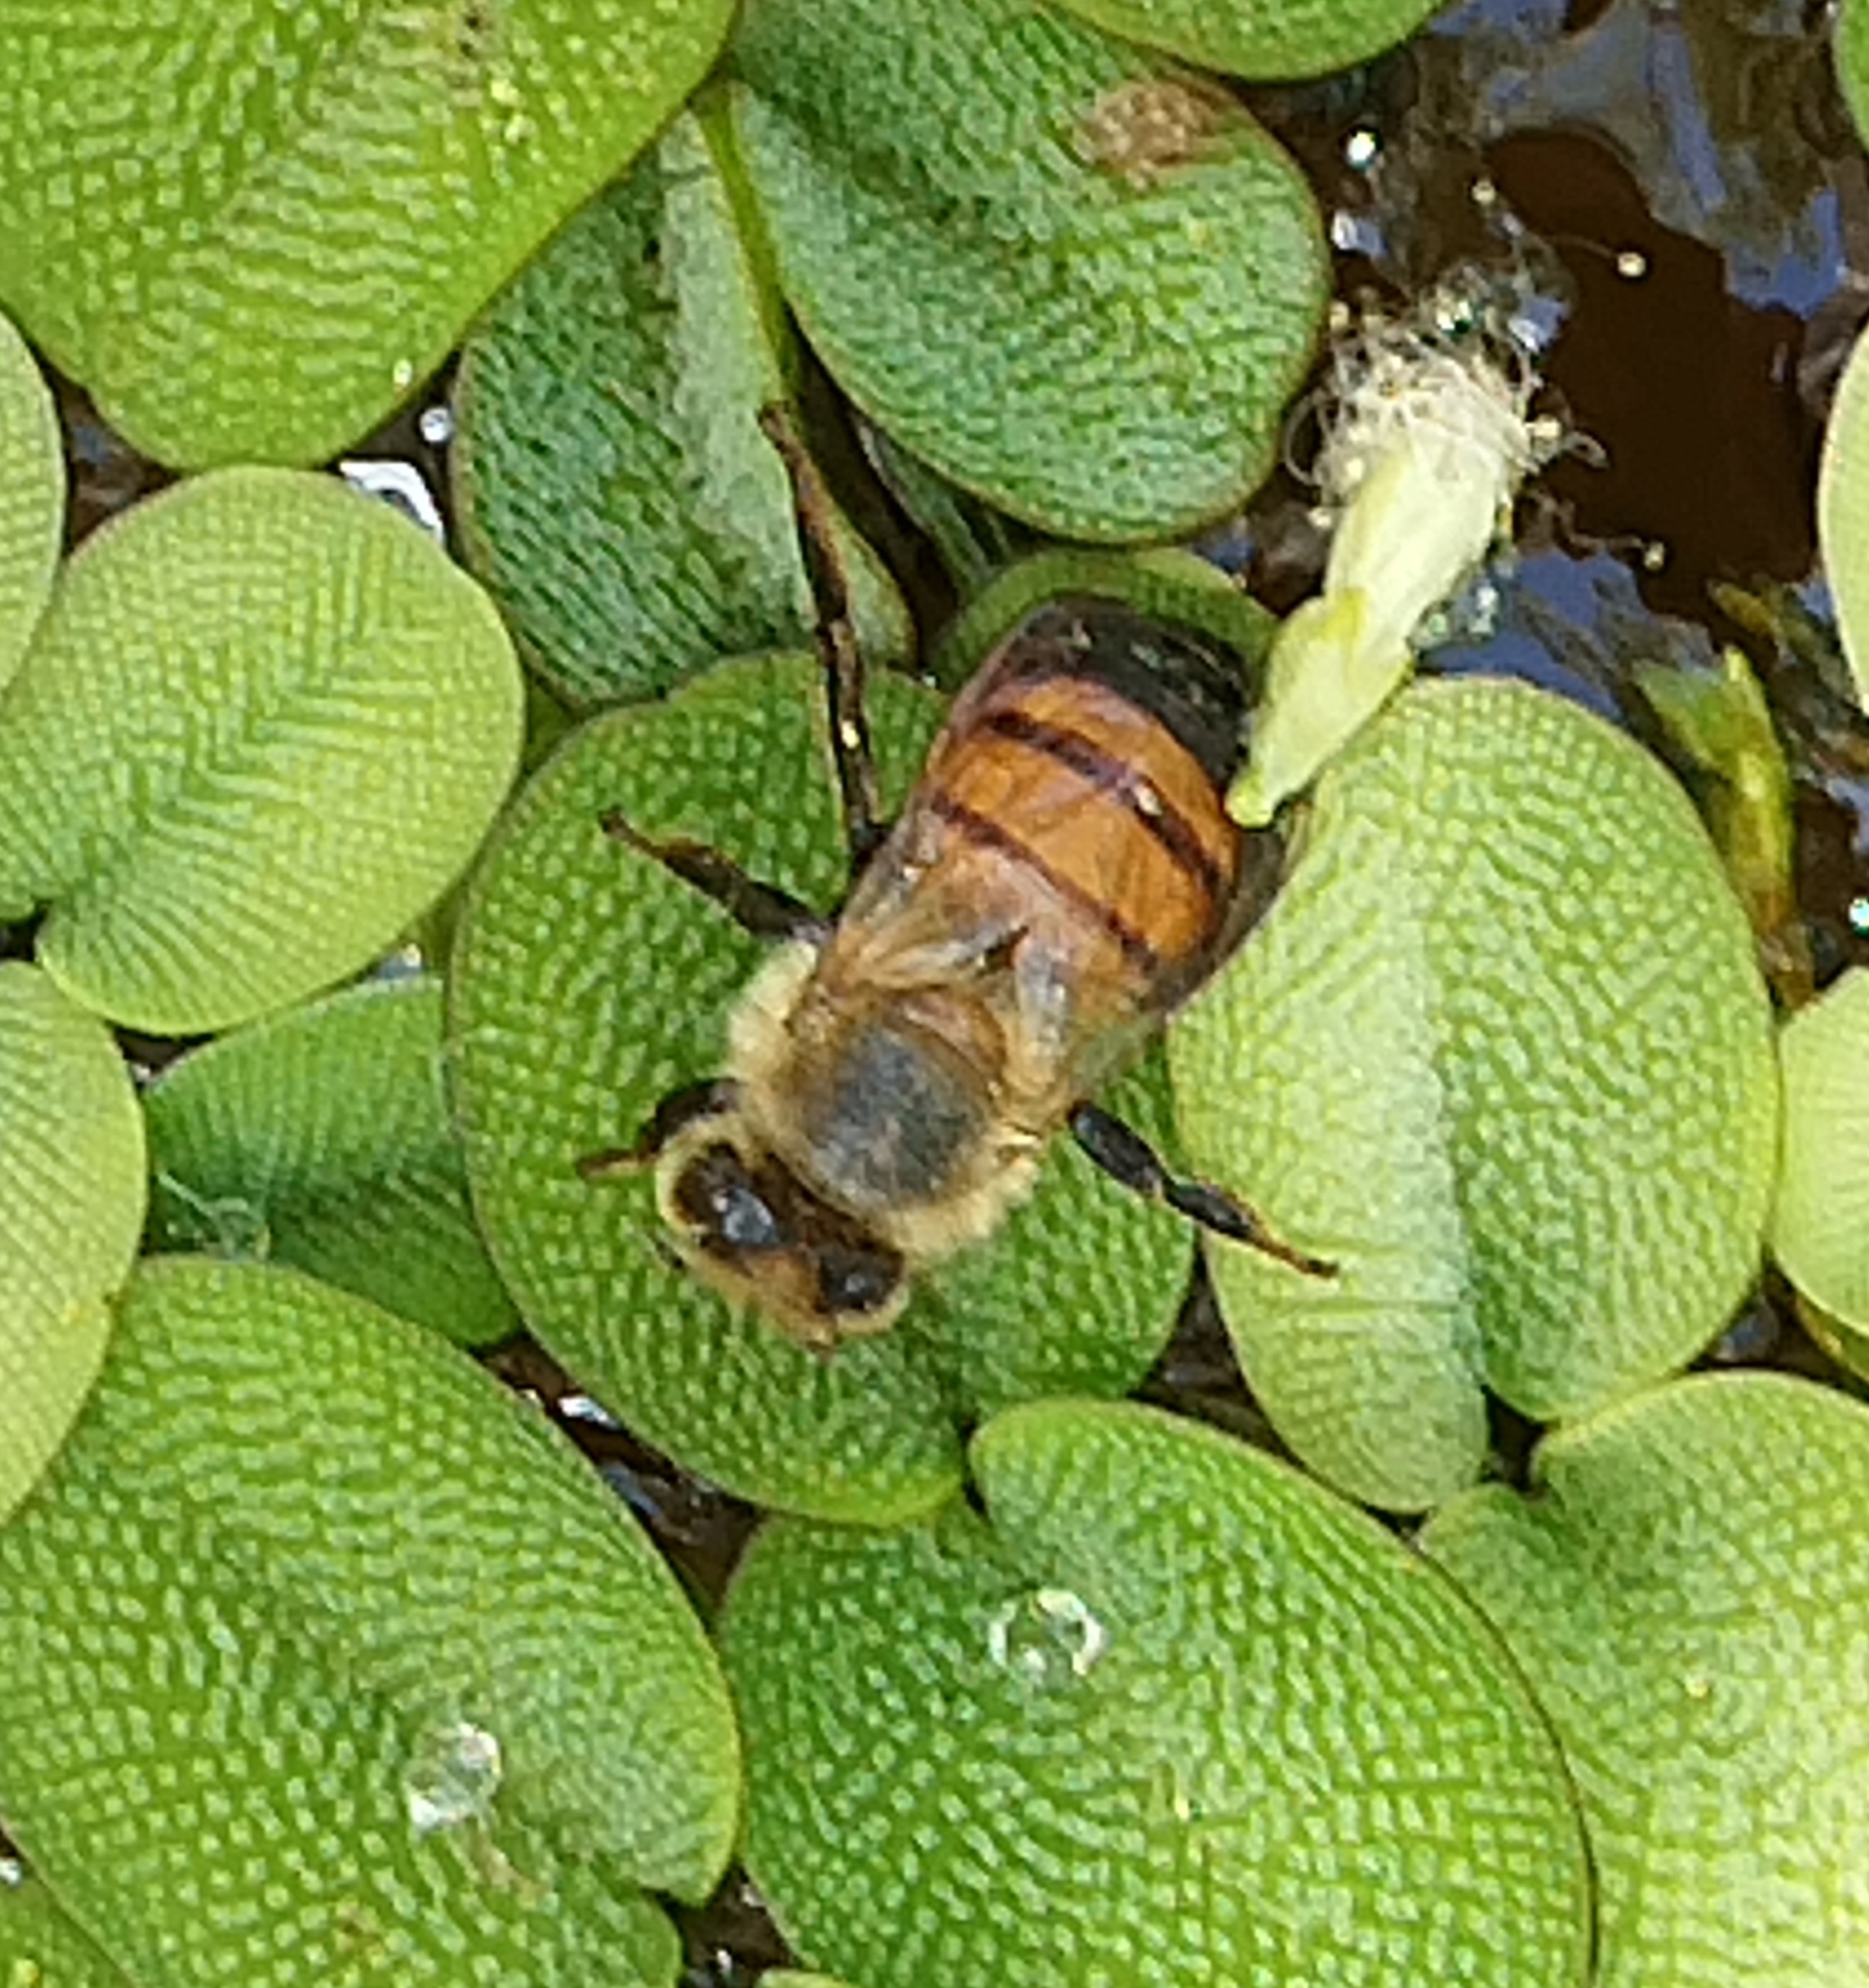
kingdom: Animalia
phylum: Arthropoda
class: Insecta
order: Hymenoptera
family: Apidae
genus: Apis
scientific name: Apis mellifera
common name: Honey bee
